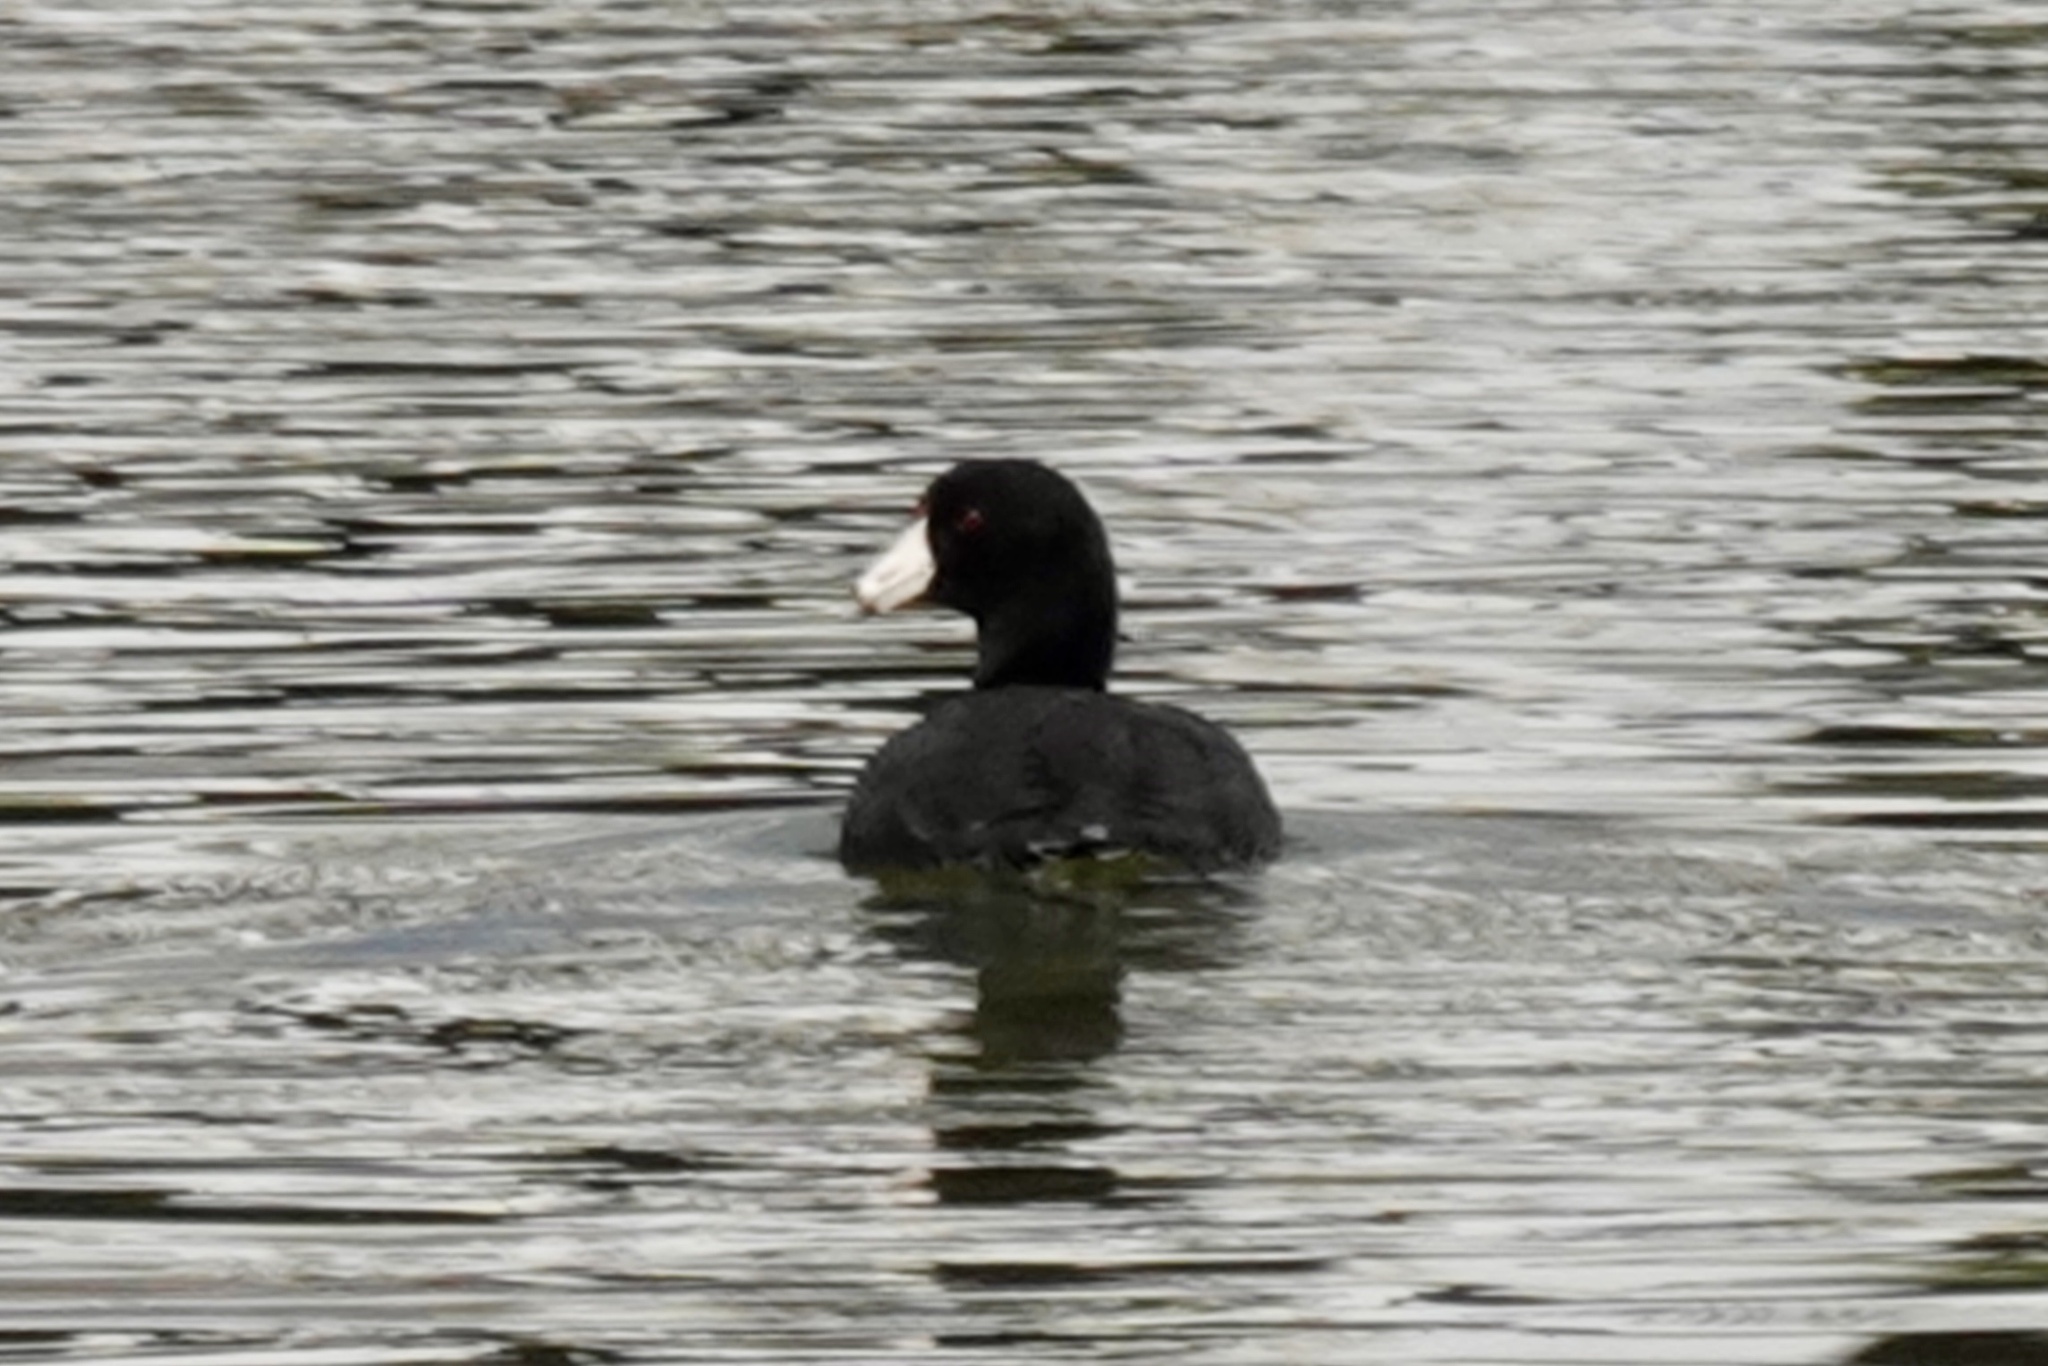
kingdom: Animalia
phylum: Chordata
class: Aves
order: Gruiformes
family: Rallidae
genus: Fulica
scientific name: Fulica americana
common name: American coot
